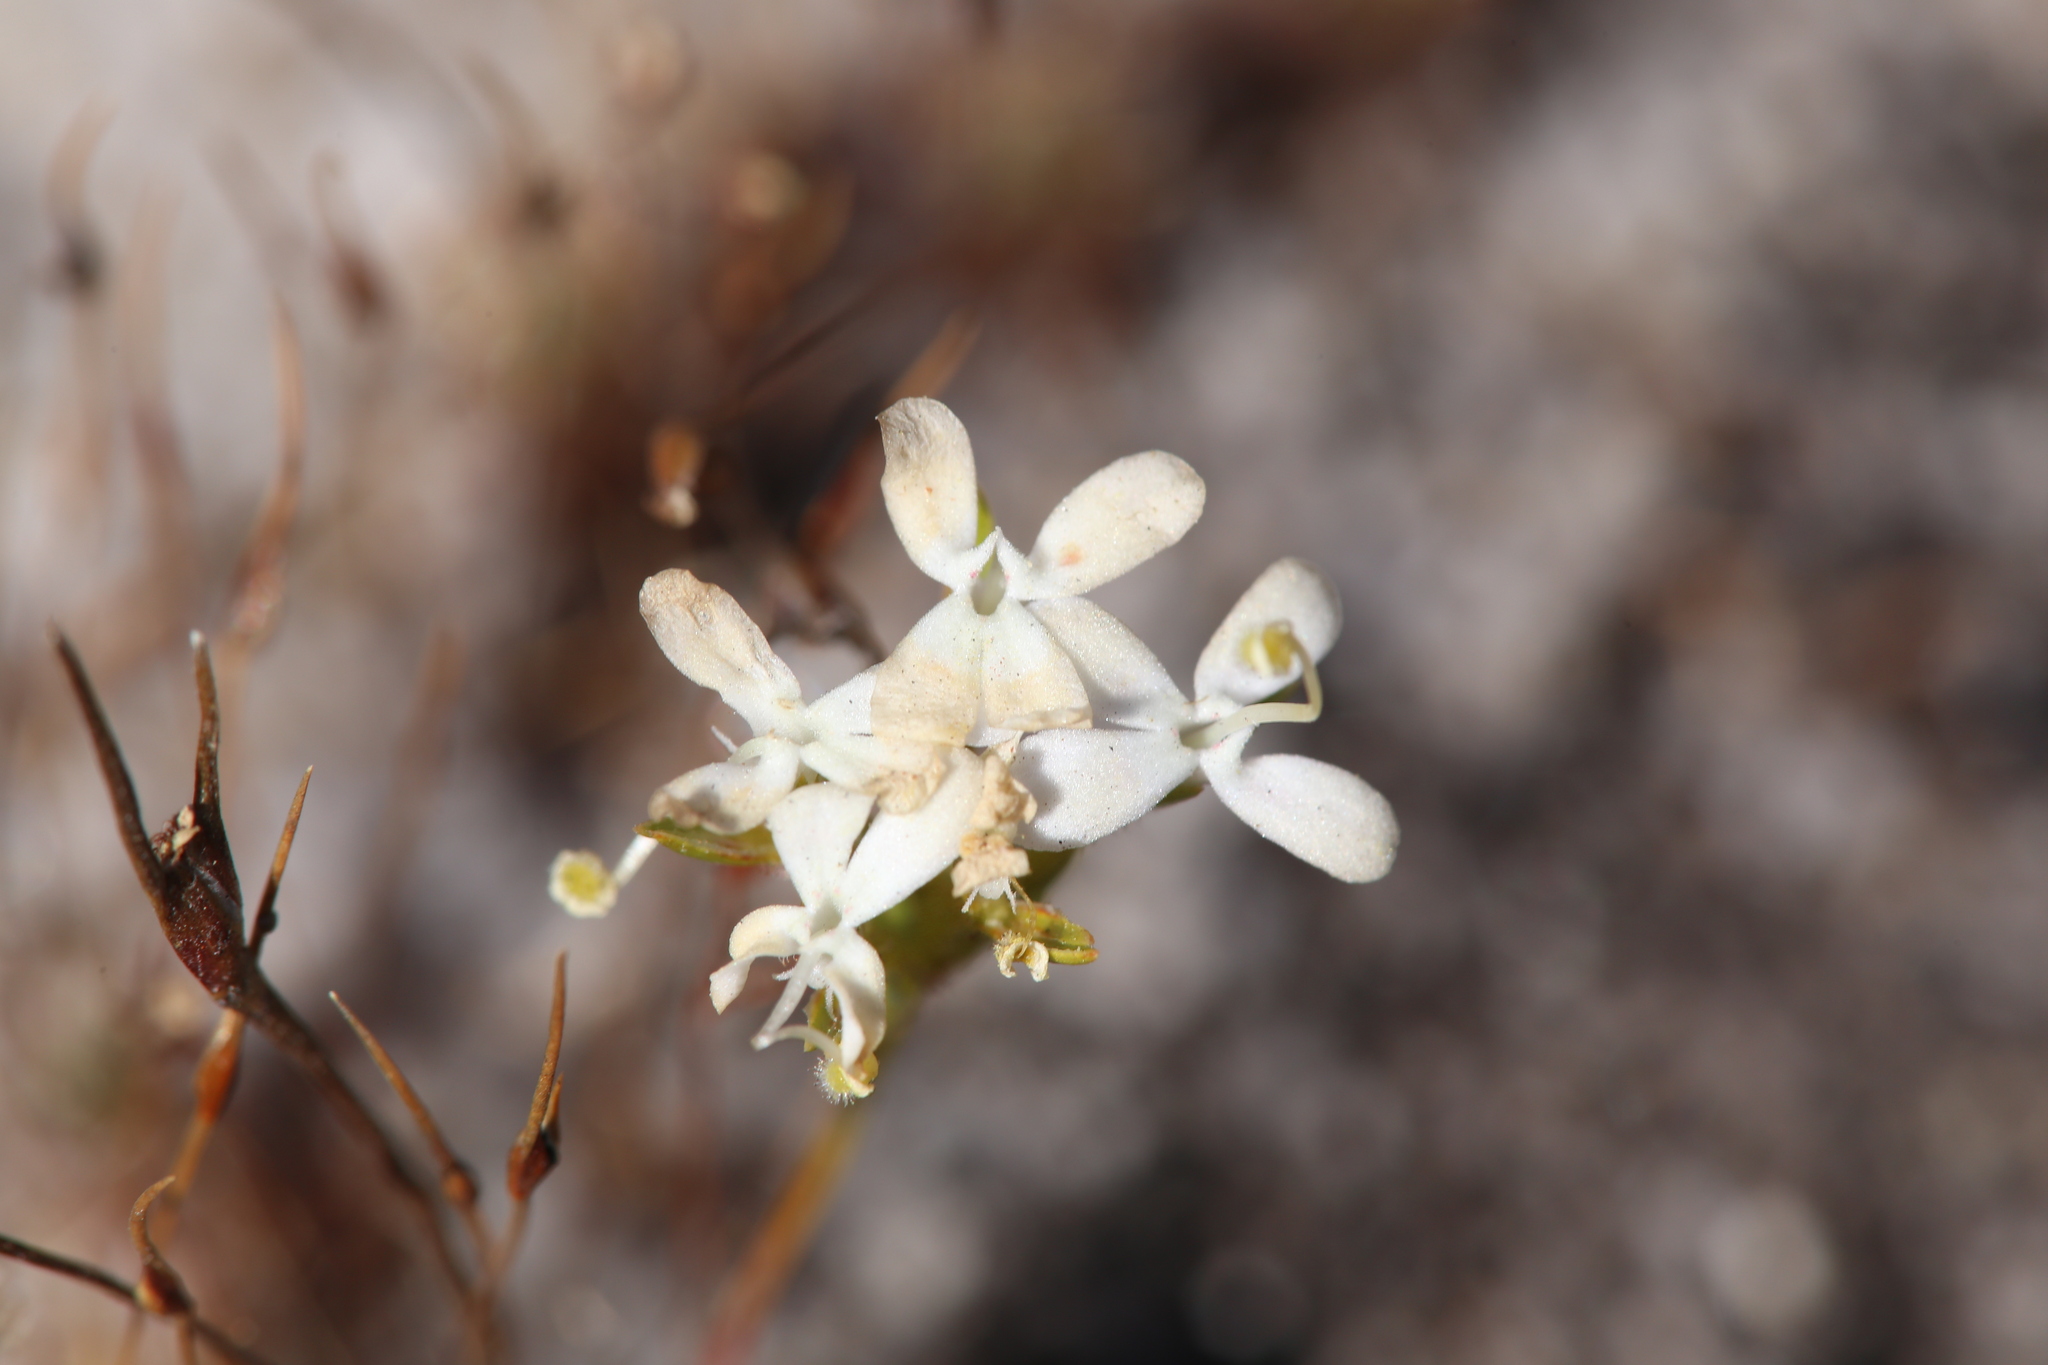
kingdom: Plantae
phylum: Tracheophyta
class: Magnoliopsida
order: Asterales
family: Stylidiaceae
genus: Stylidium
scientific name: Stylidium guttatum
